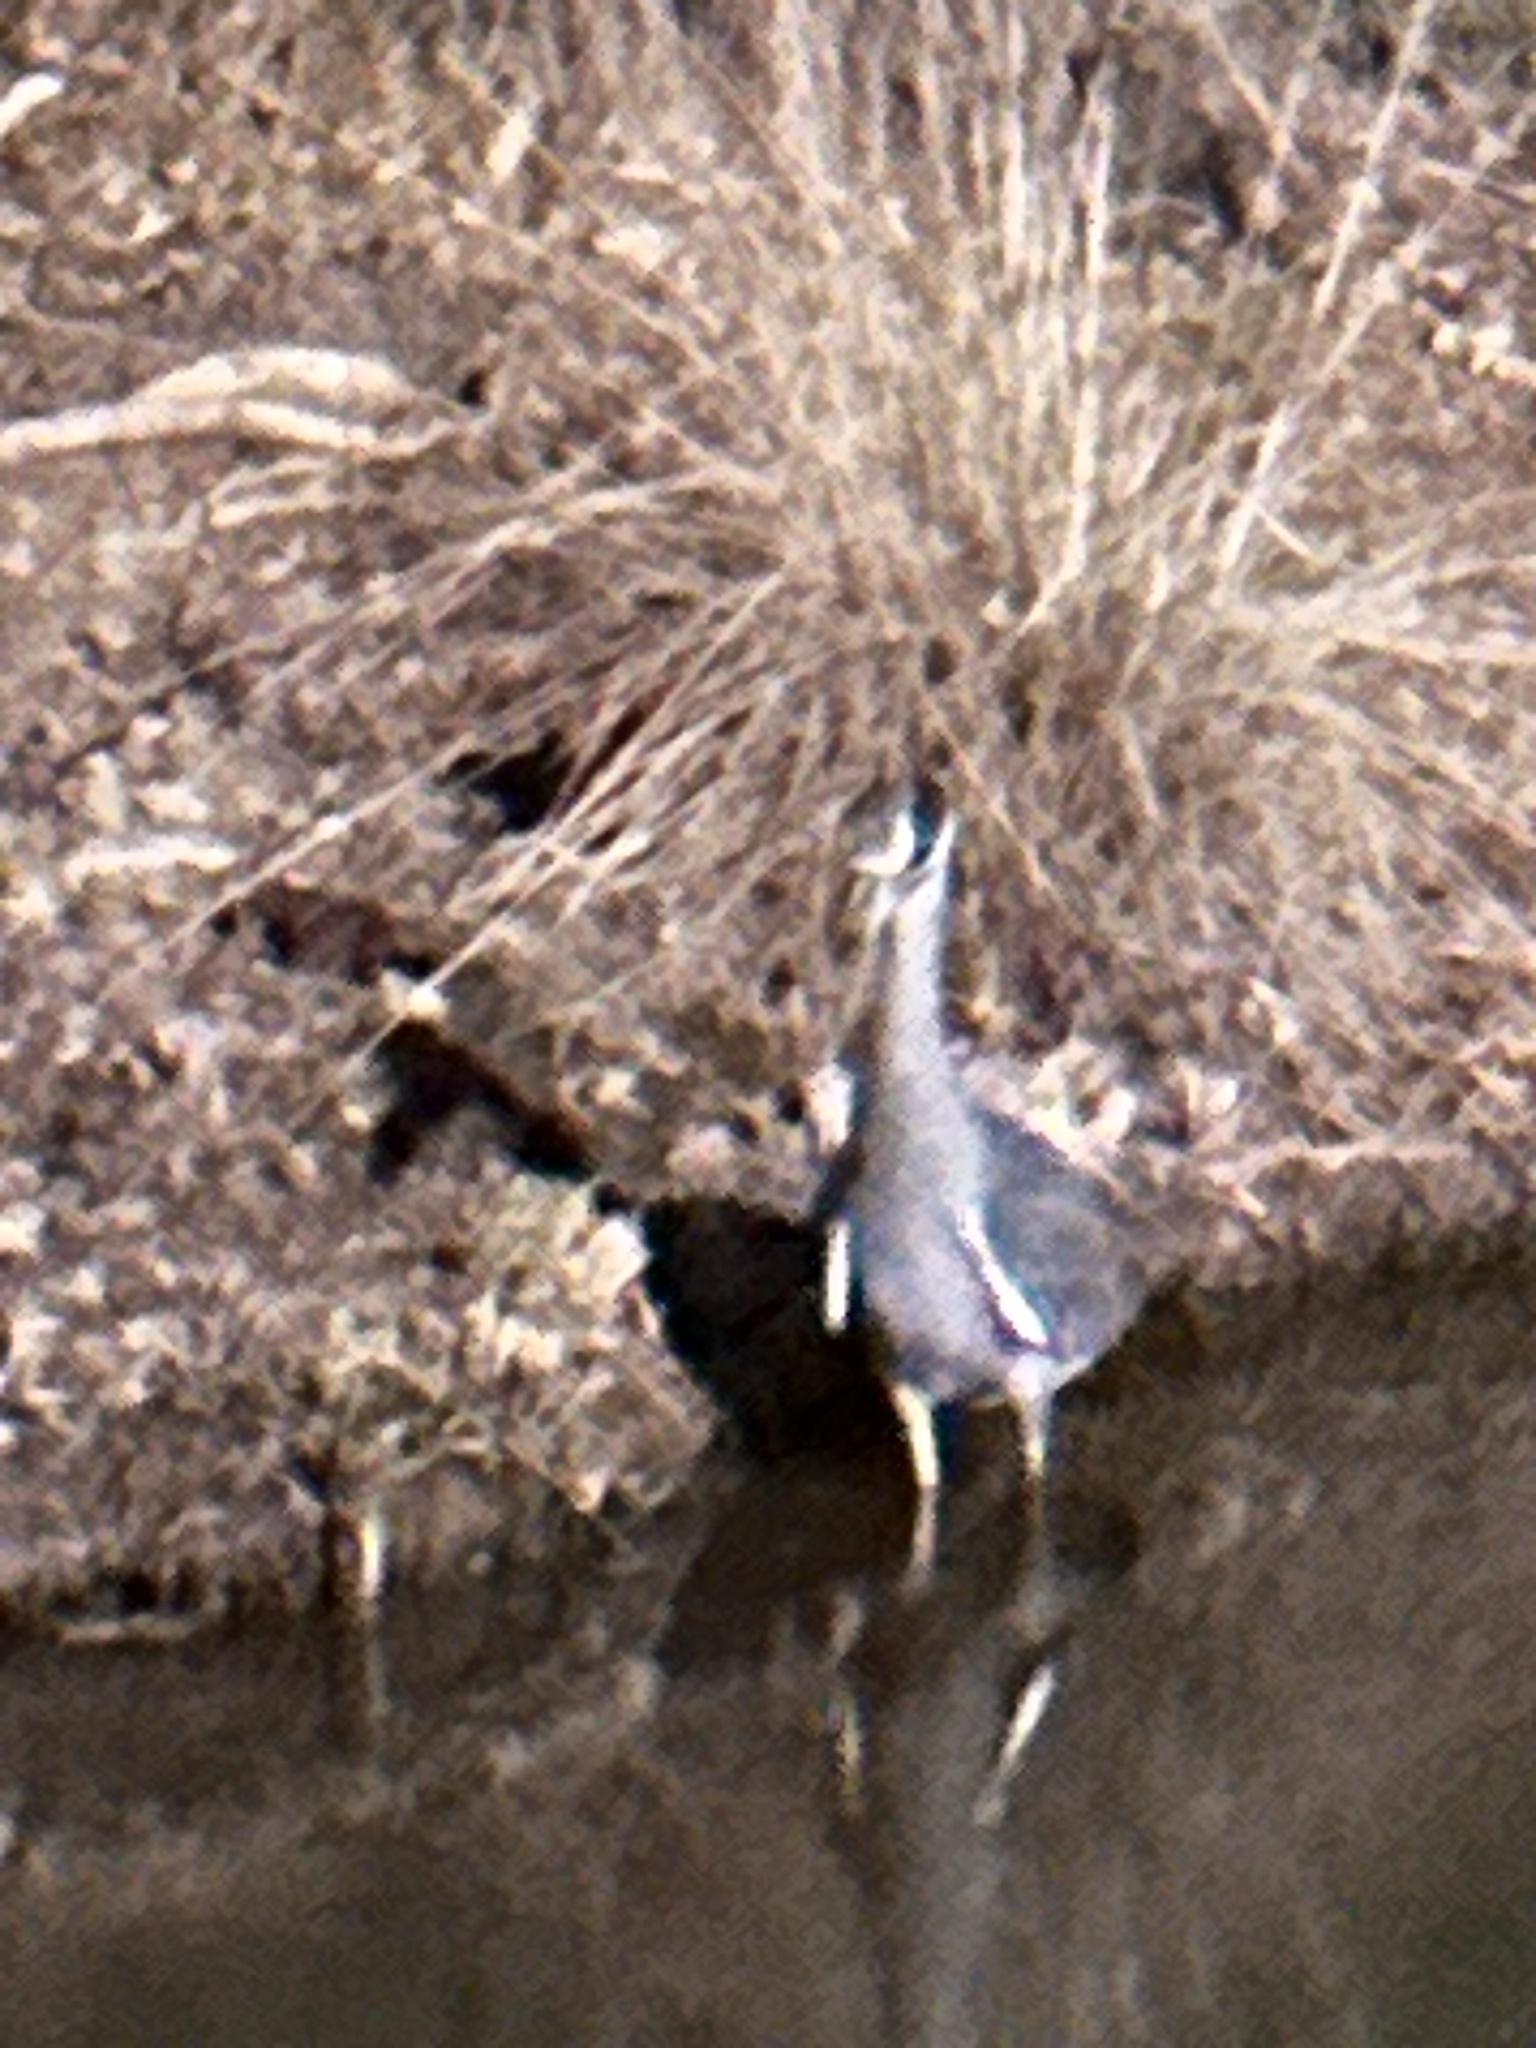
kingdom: Animalia
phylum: Chordata
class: Aves
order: Pelecaniformes
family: Ardeidae
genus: Nyctanassa
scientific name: Nyctanassa violacea
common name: Yellow-crowned night heron
